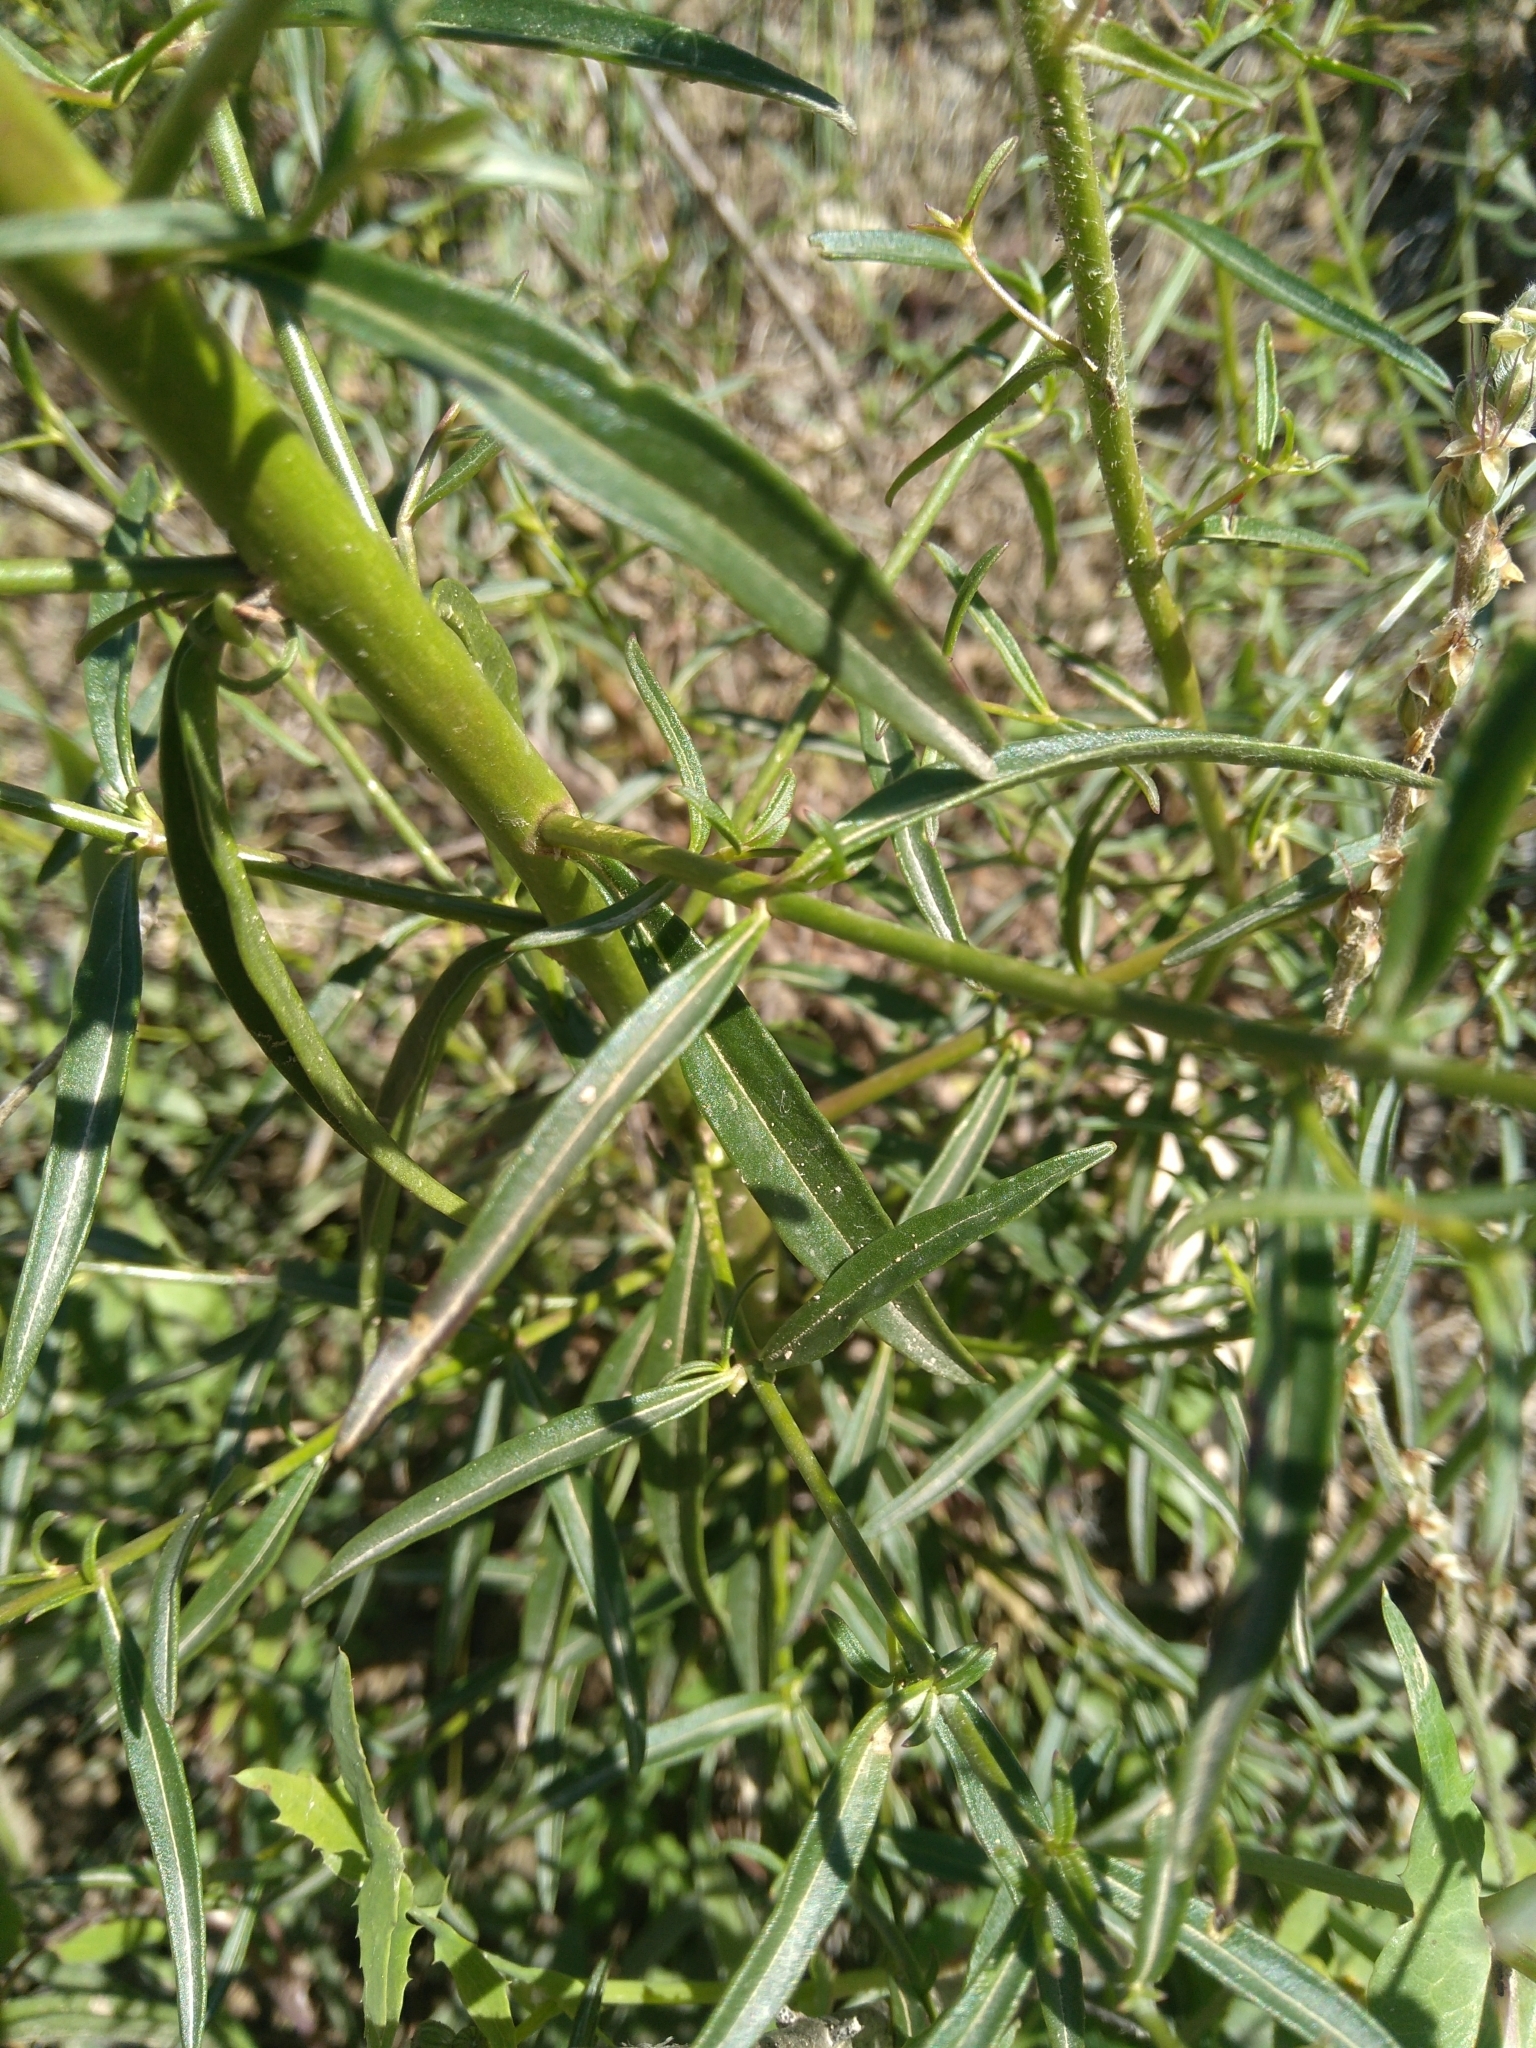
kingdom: Plantae
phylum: Tracheophyta
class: Magnoliopsida
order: Lamiales
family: Plantaginaceae
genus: Antirrhinum
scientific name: Antirrhinum majus
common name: Snapdragon
